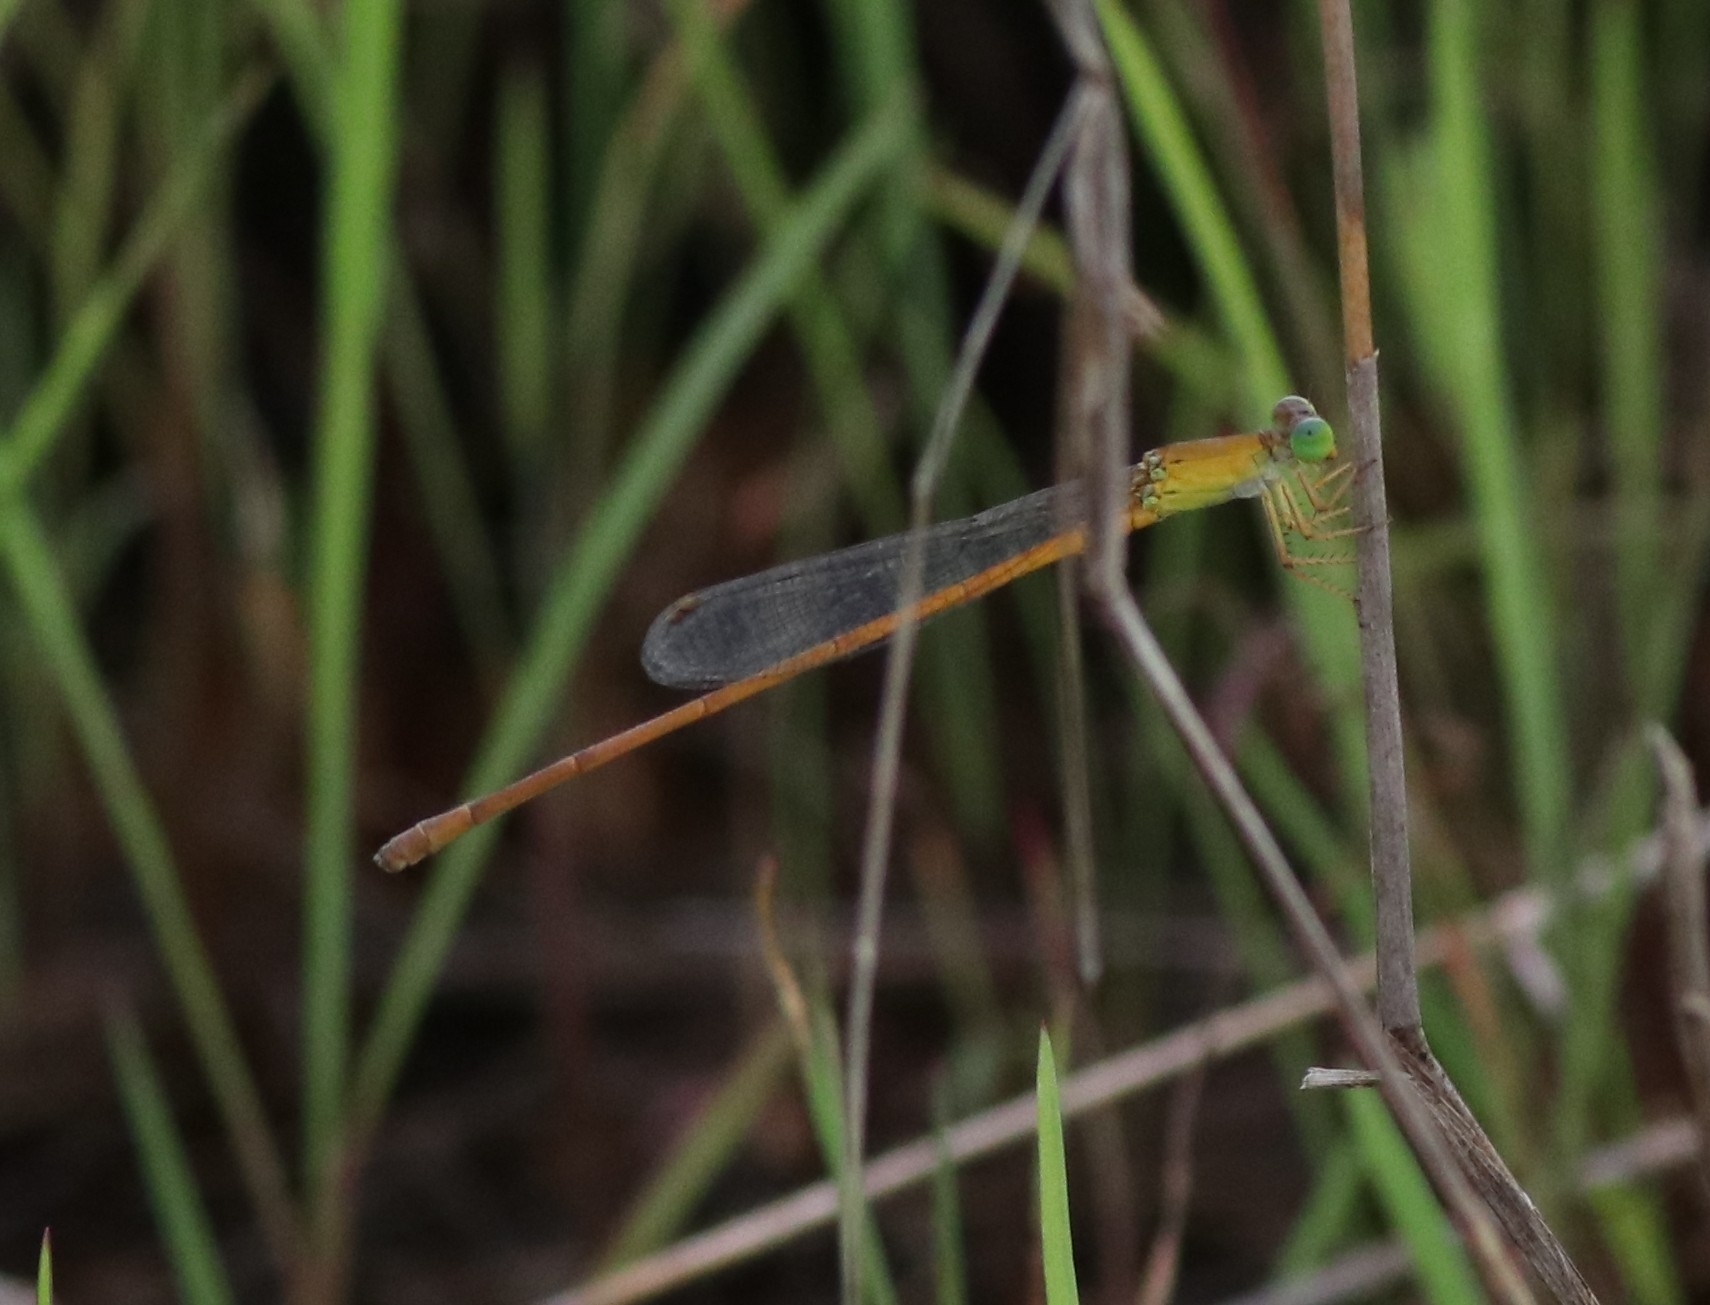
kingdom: Animalia
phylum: Arthropoda
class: Insecta
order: Odonata
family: Coenagrionidae
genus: Ceriagrion
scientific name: Ceriagrion rubiae
